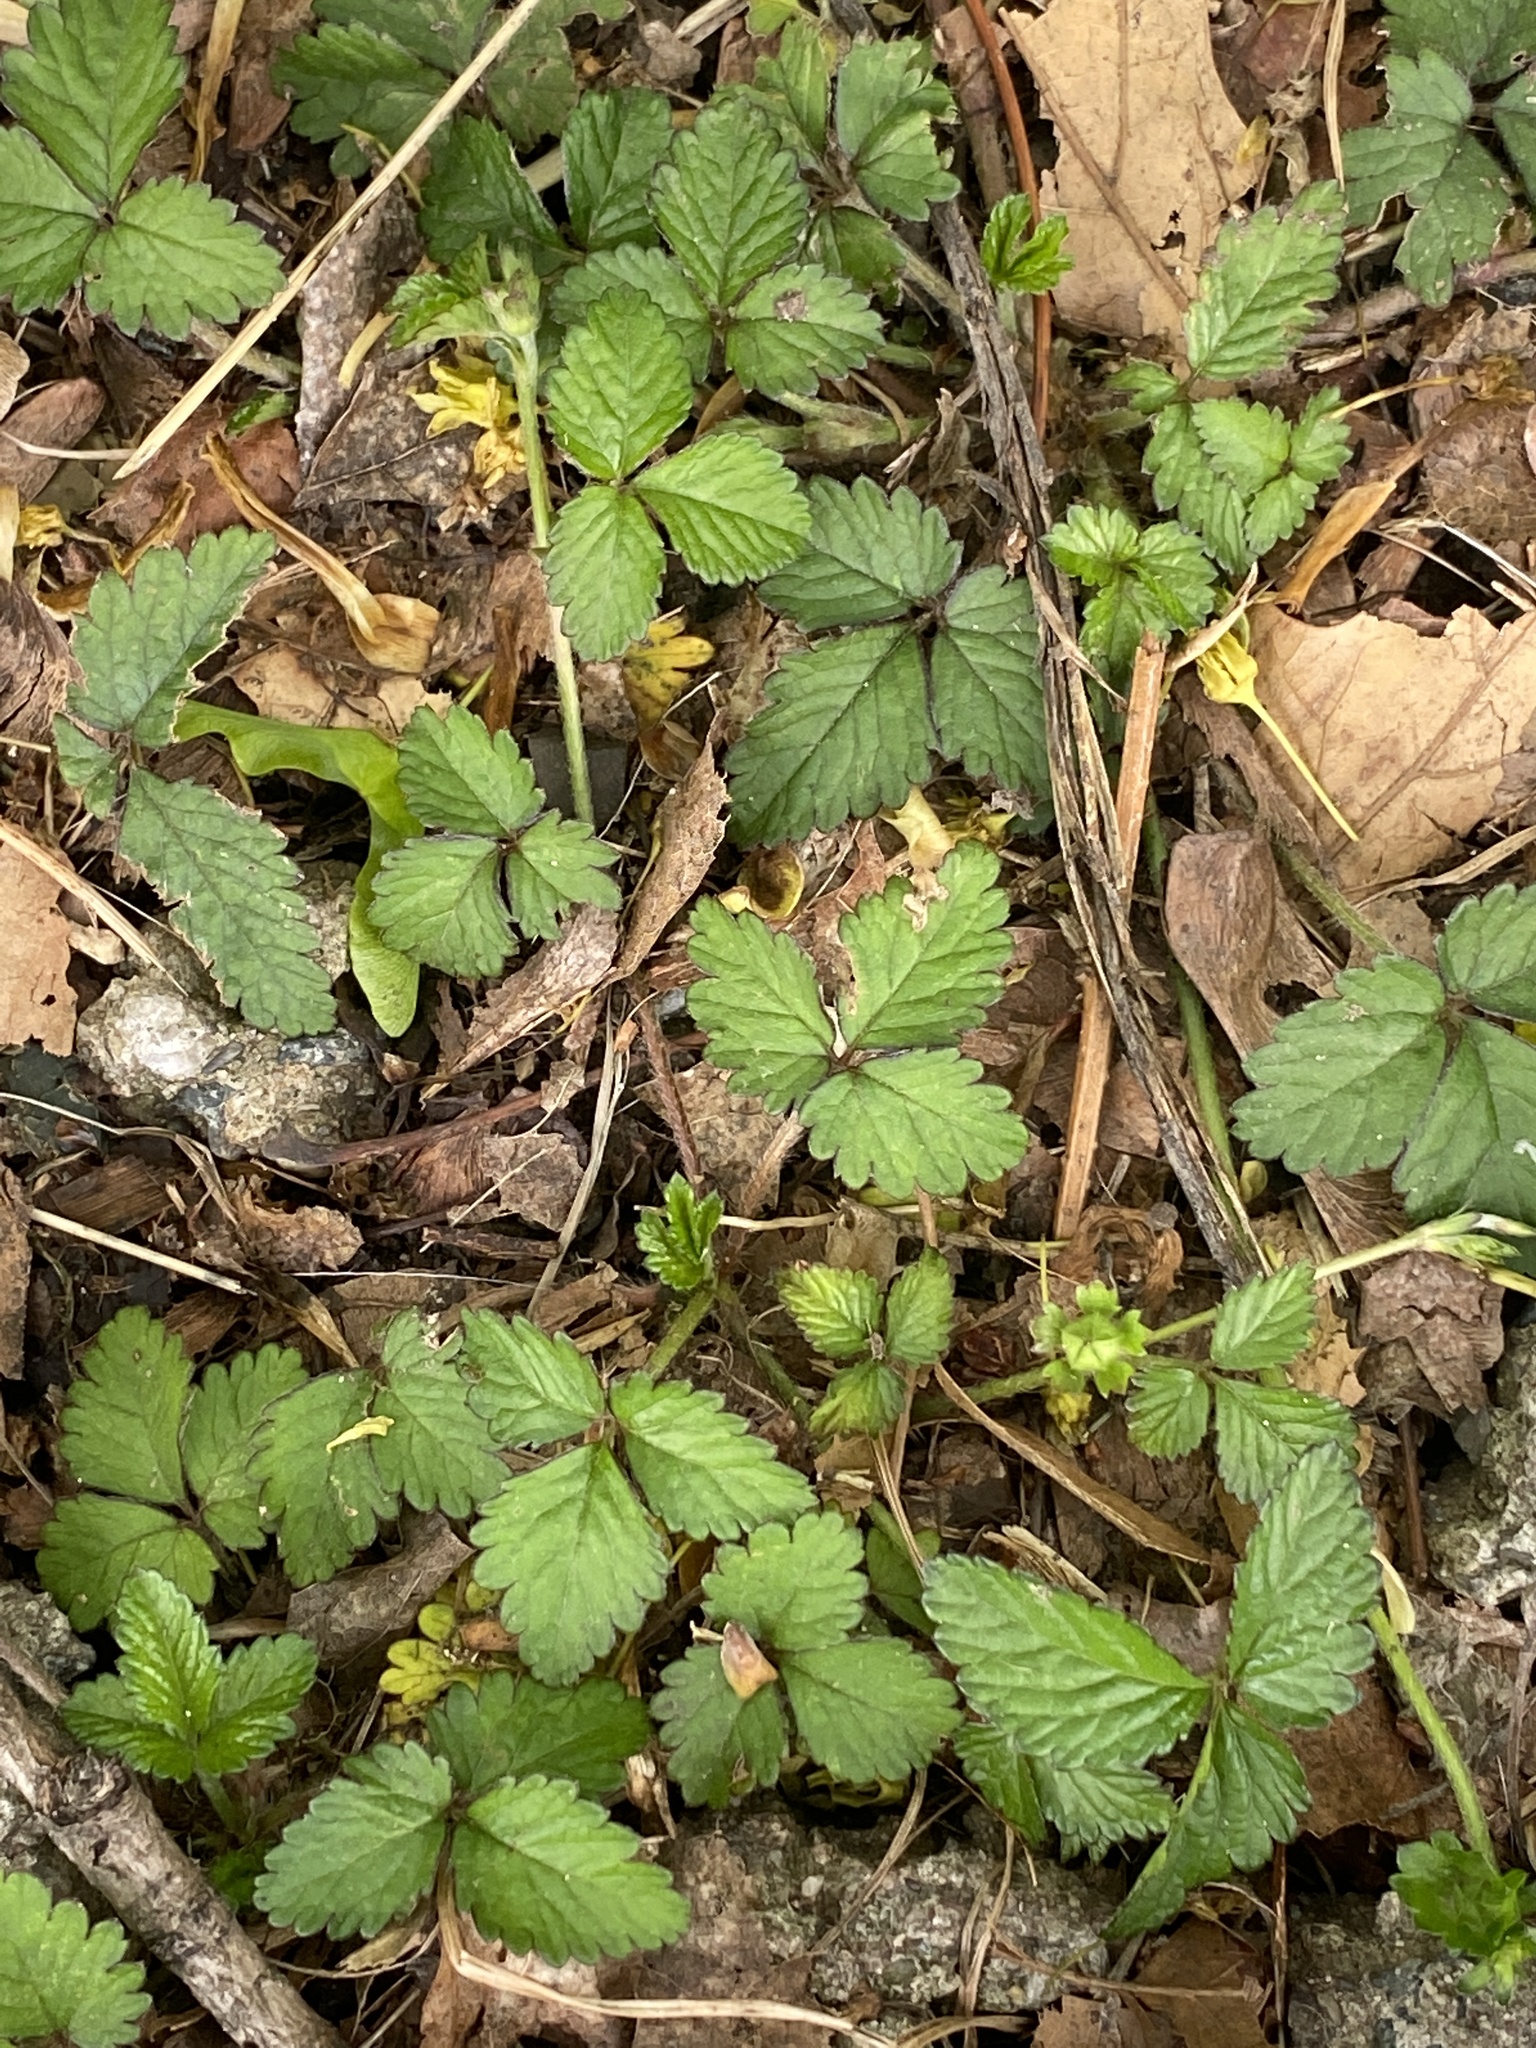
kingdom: Plantae
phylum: Tracheophyta
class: Magnoliopsida
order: Rosales
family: Rosaceae
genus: Potentilla
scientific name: Potentilla indica
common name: Yellow-flowered strawberry
